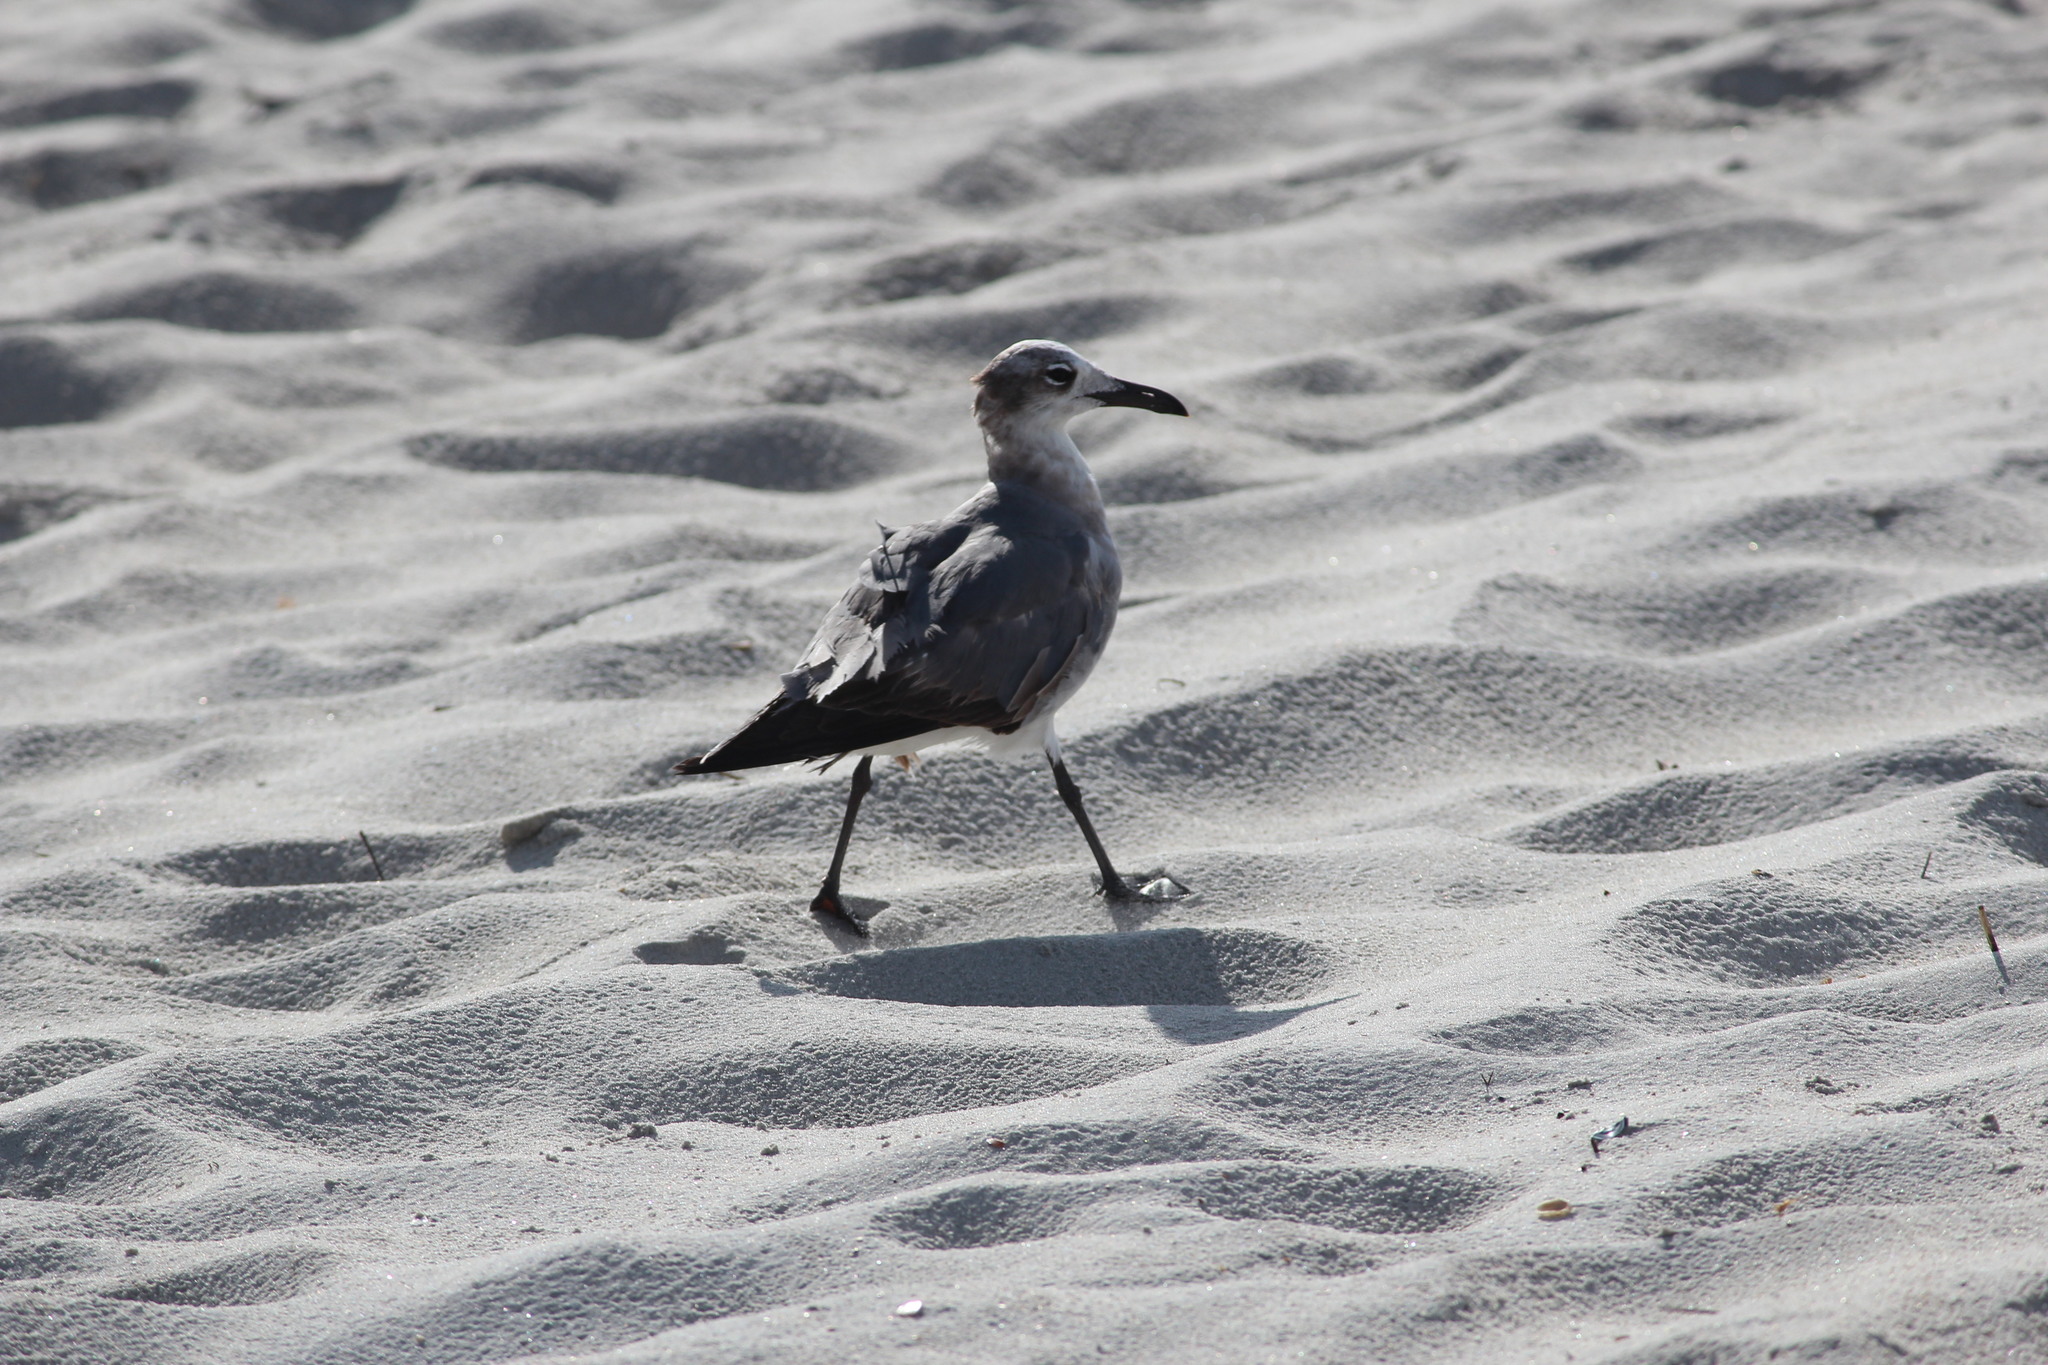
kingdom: Animalia
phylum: Chordata
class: Aves
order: Charadriiformes
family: Laridae
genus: Leucophaeus
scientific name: Leucophaeus atricilla
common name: Laughing gull
